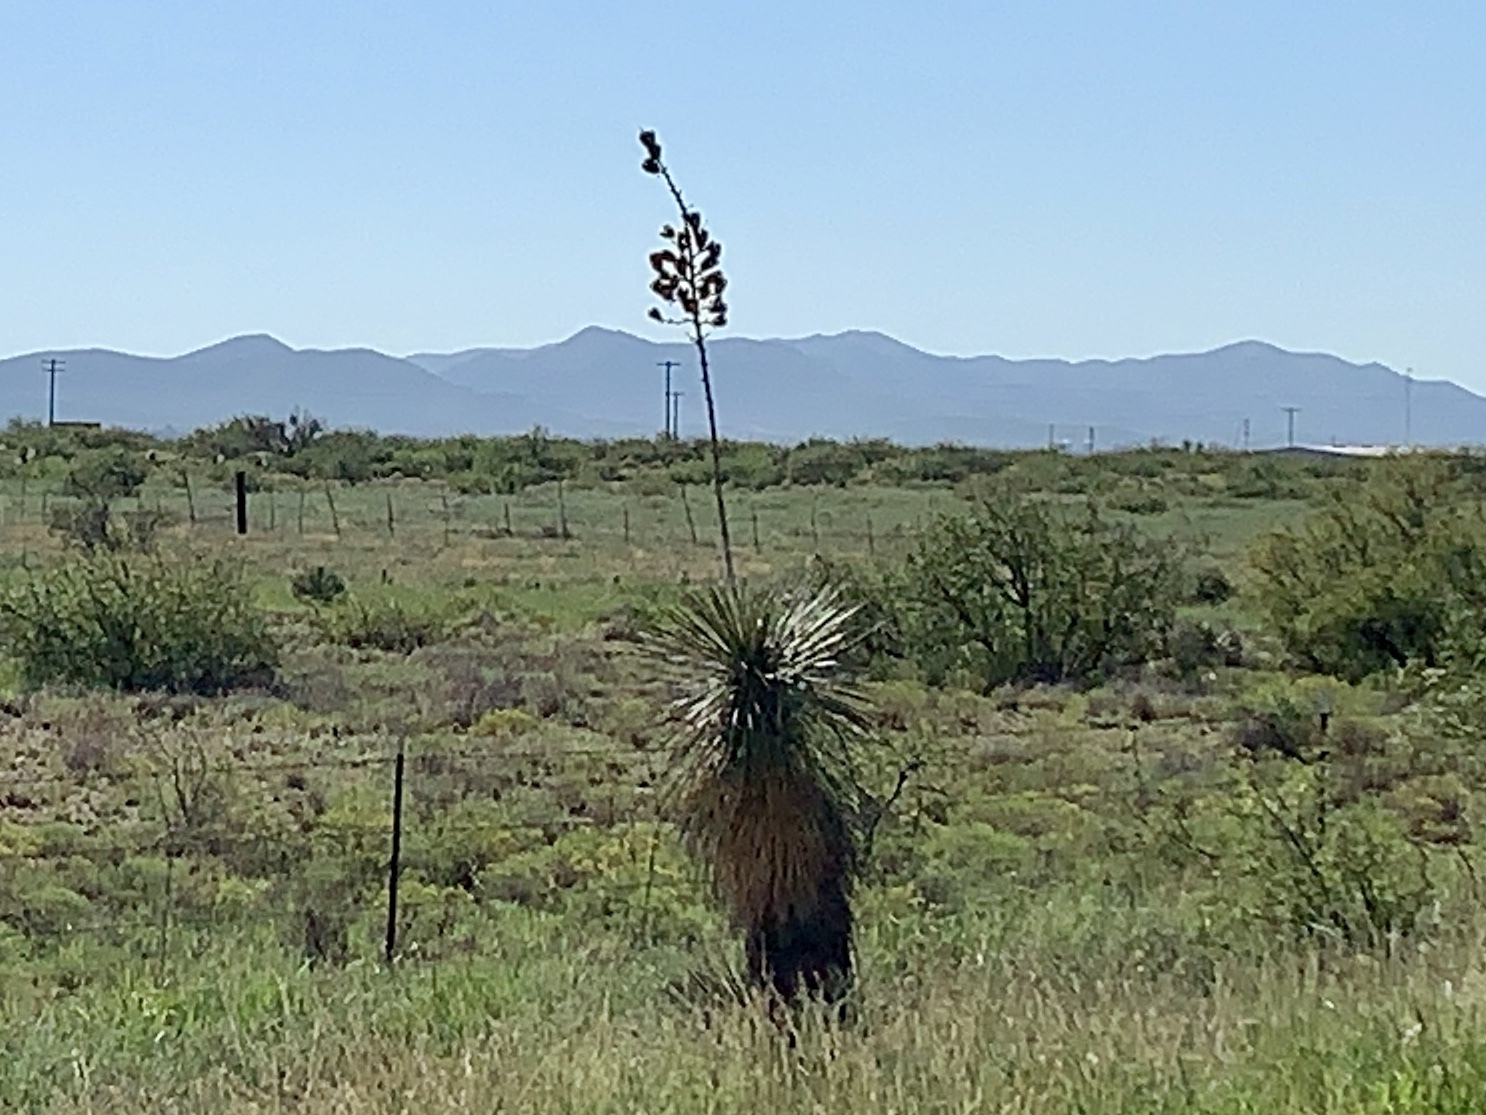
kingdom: Plantae
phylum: Tracheophyta
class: Liliopsida
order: Asparagales
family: Asparagaceae
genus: Yucca
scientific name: Yucca elata
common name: Palmella
